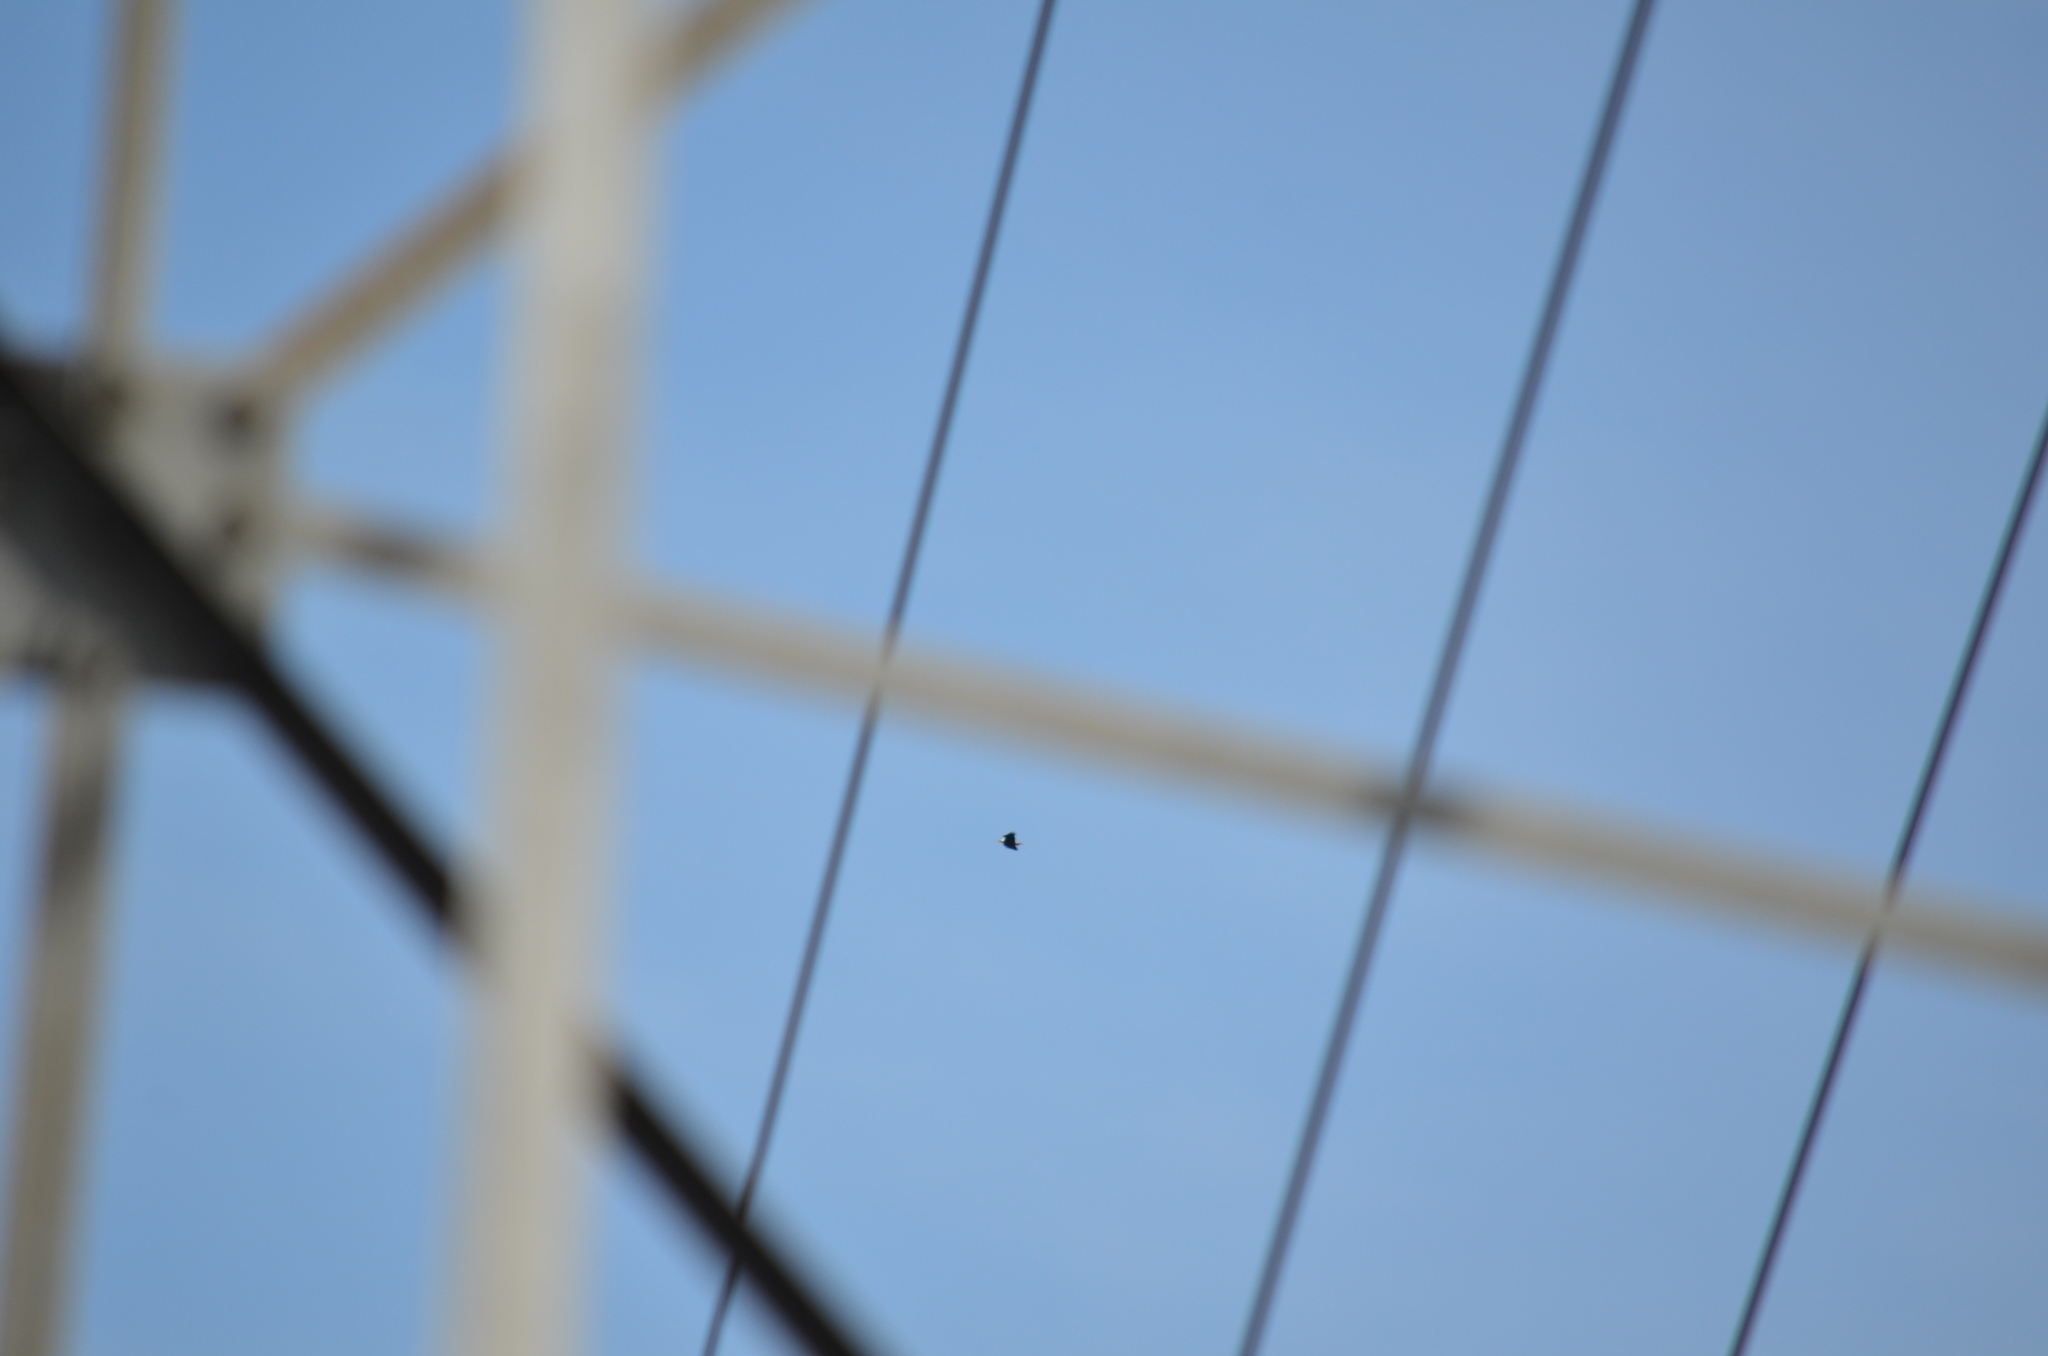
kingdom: Animalia
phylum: Chordata
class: Aves
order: Accipitriformes
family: Accipitridae
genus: Haliaeetus
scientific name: Haliaeetus leucocephalus
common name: Bald eagle
